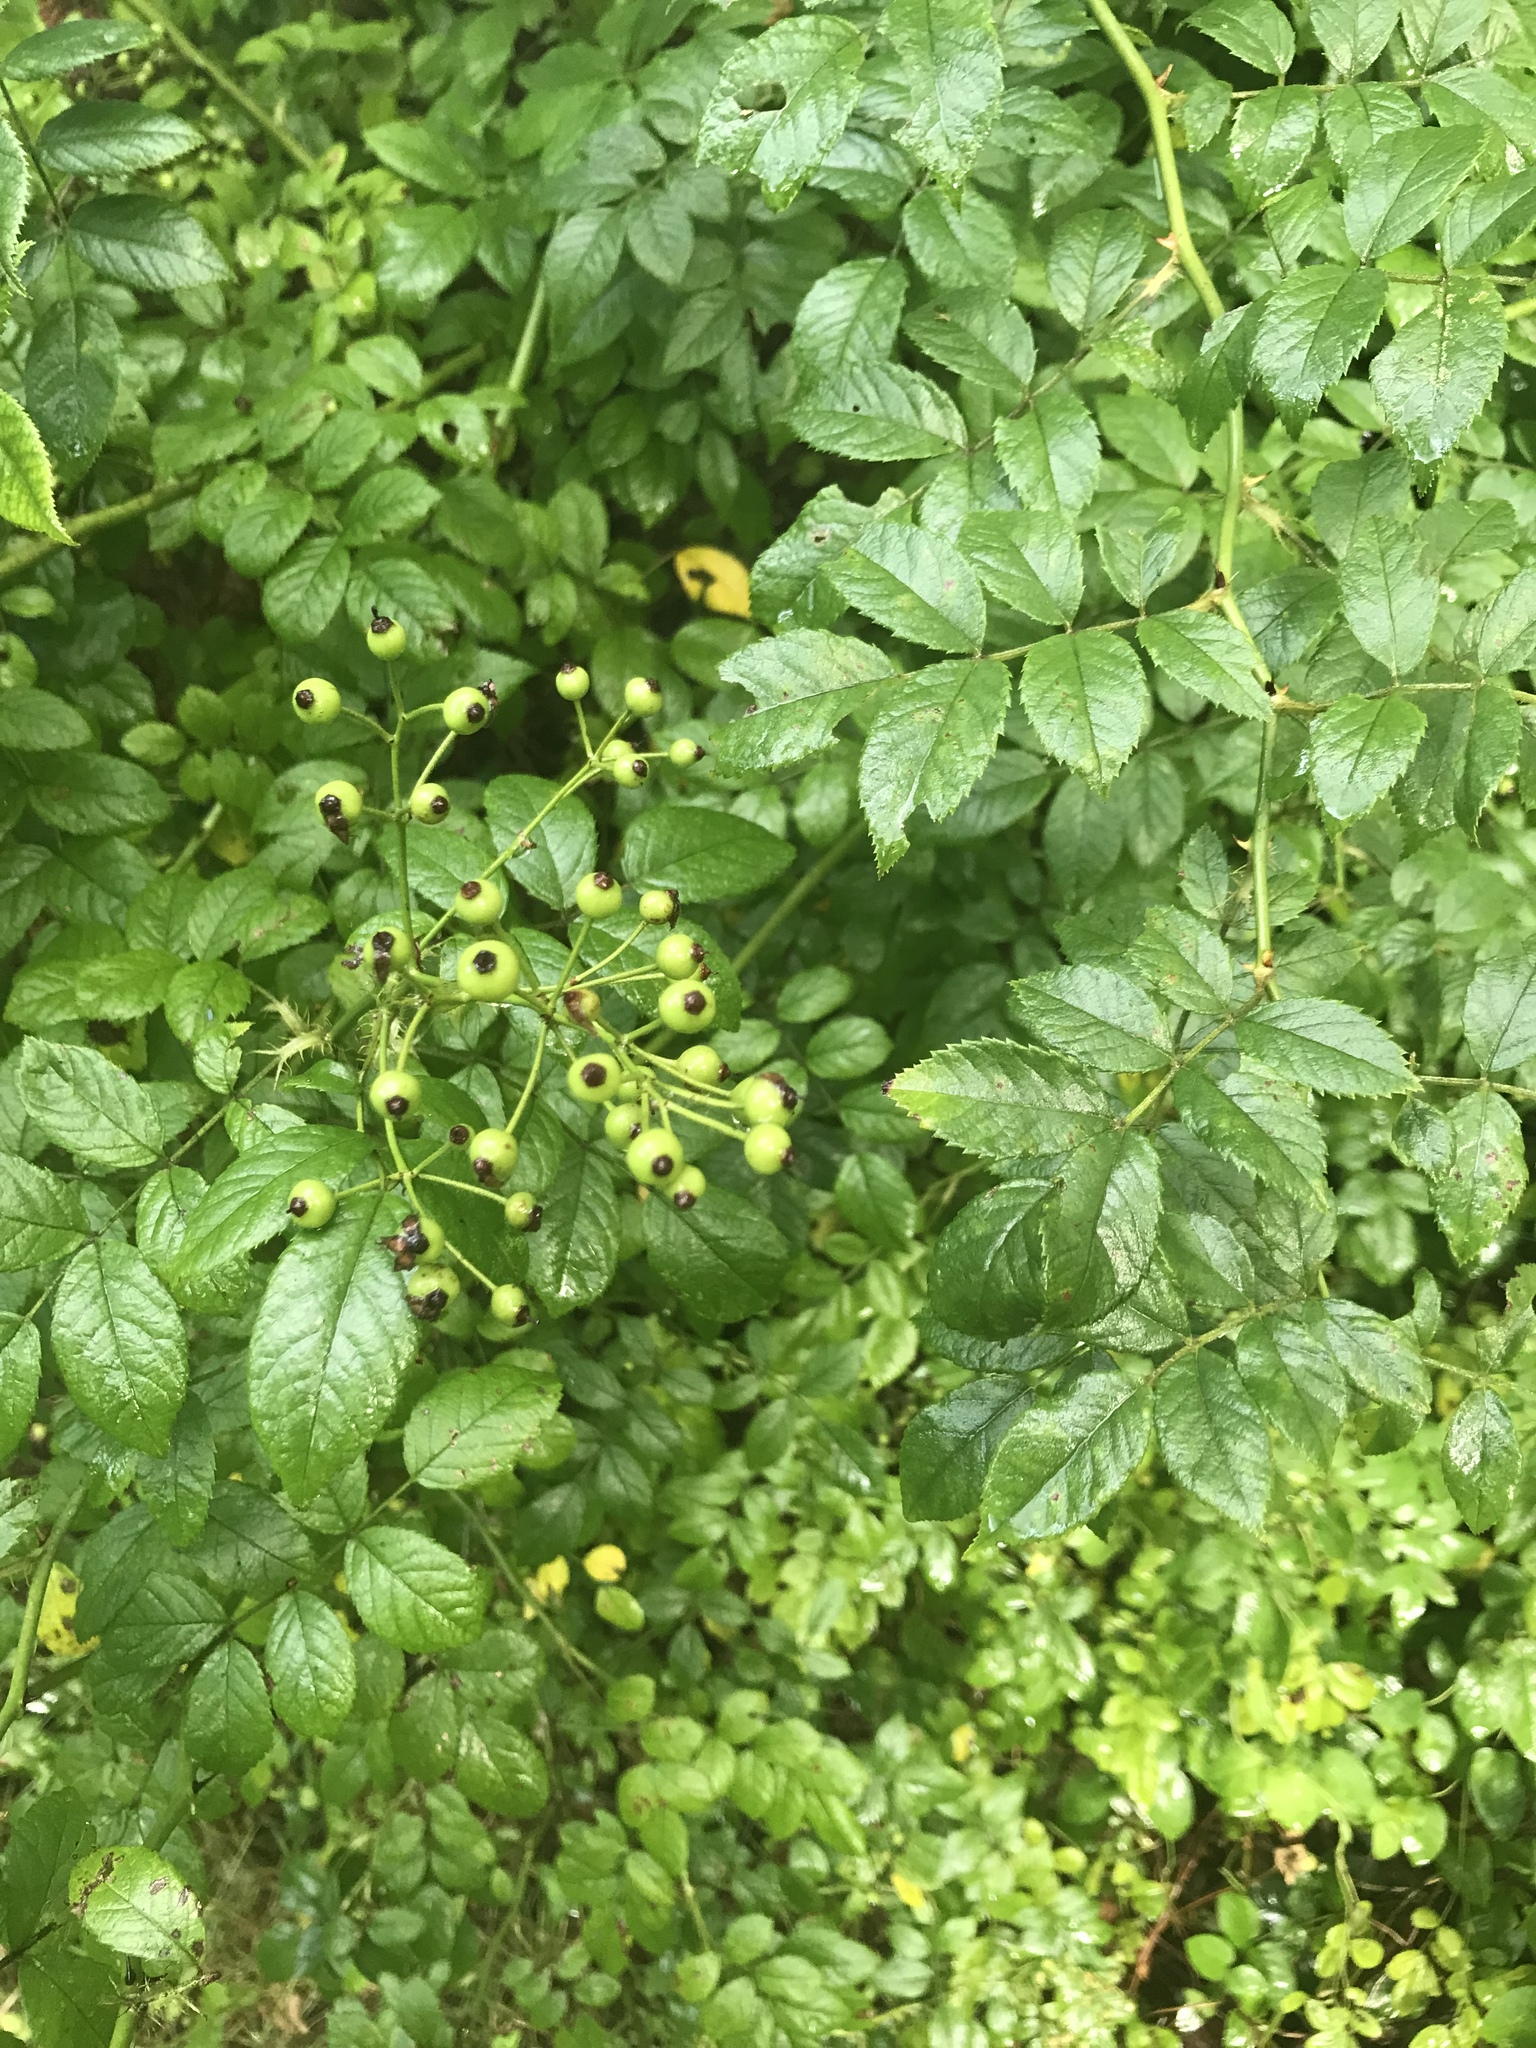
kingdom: Plantae
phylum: Tracheophyta
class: Magnoliopsida
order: Rosales
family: Rosaceae
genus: Rosa
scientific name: Rosa multiflora
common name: Multiflora rose
